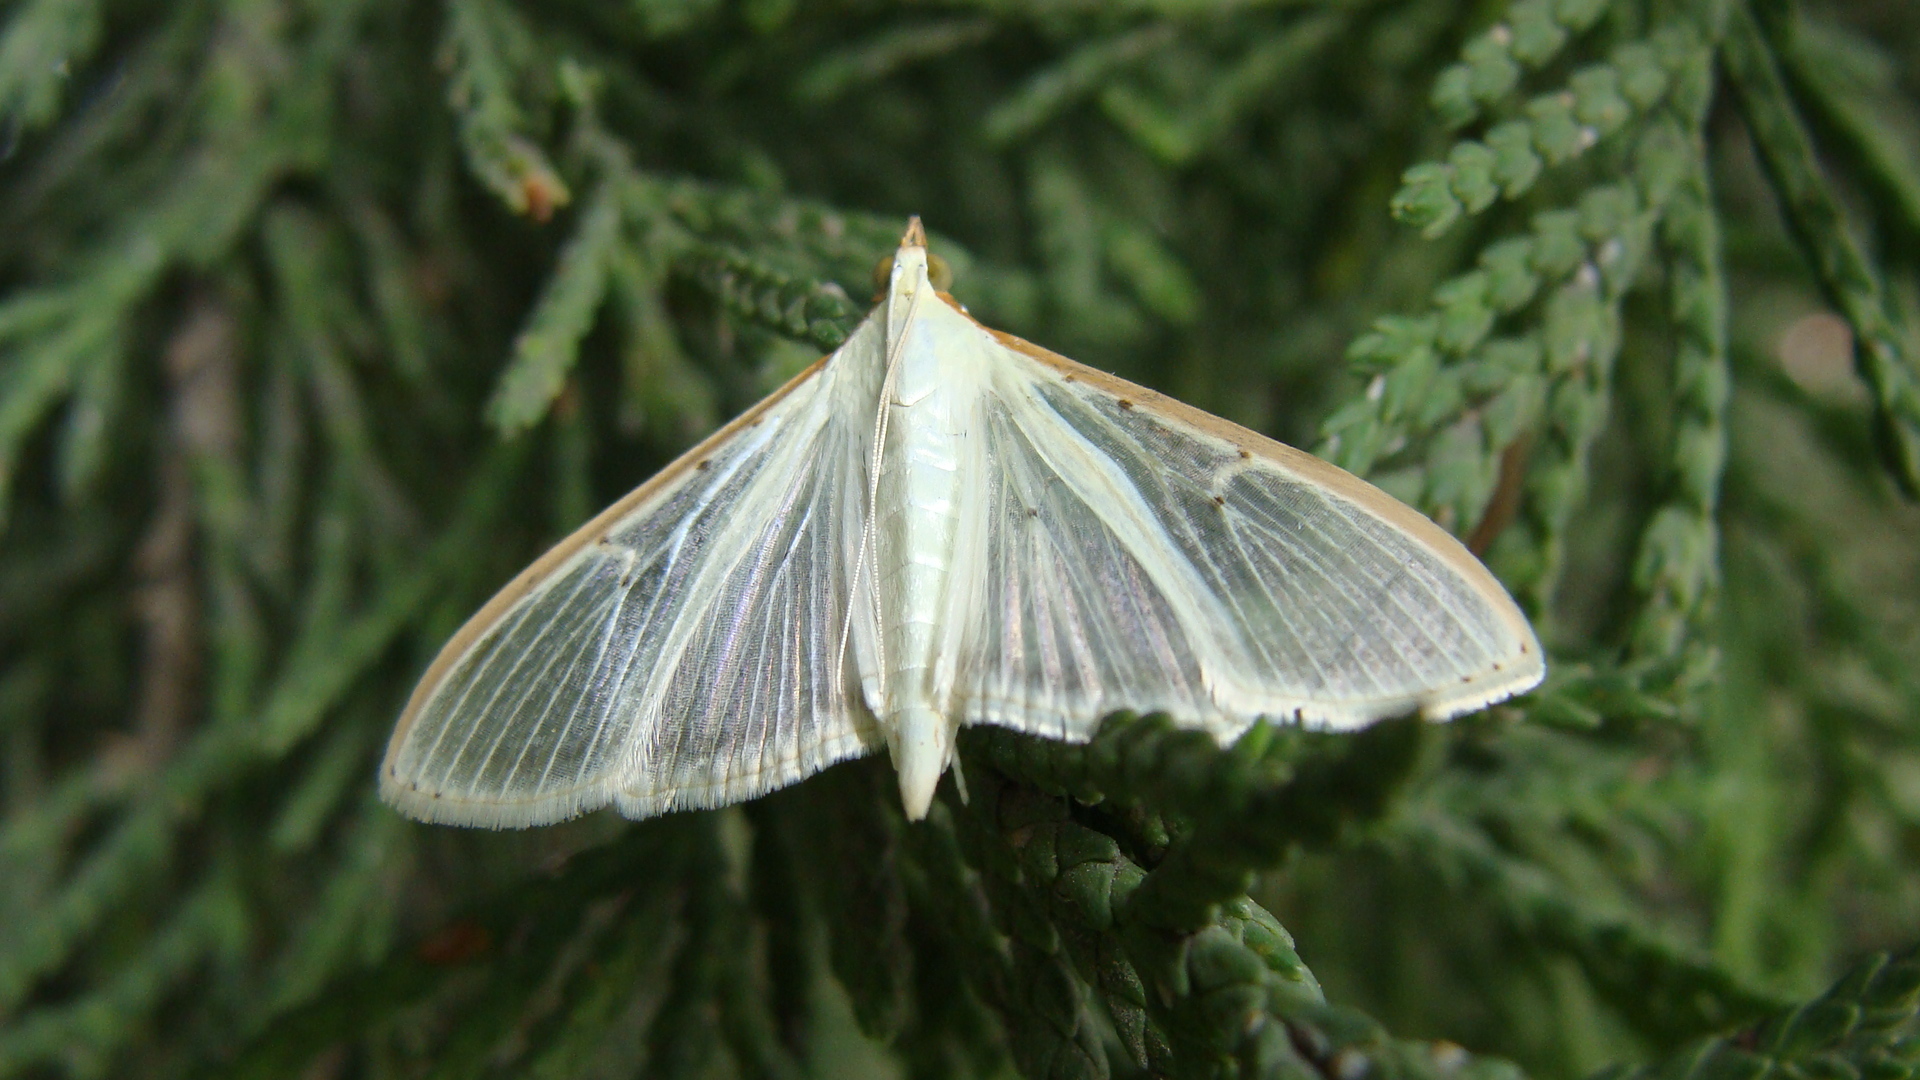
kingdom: Animalia
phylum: Arthropoda
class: Insecta
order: Lepidoptera
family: Crambidae
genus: Palpita
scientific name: Palpita quadristigmalis
